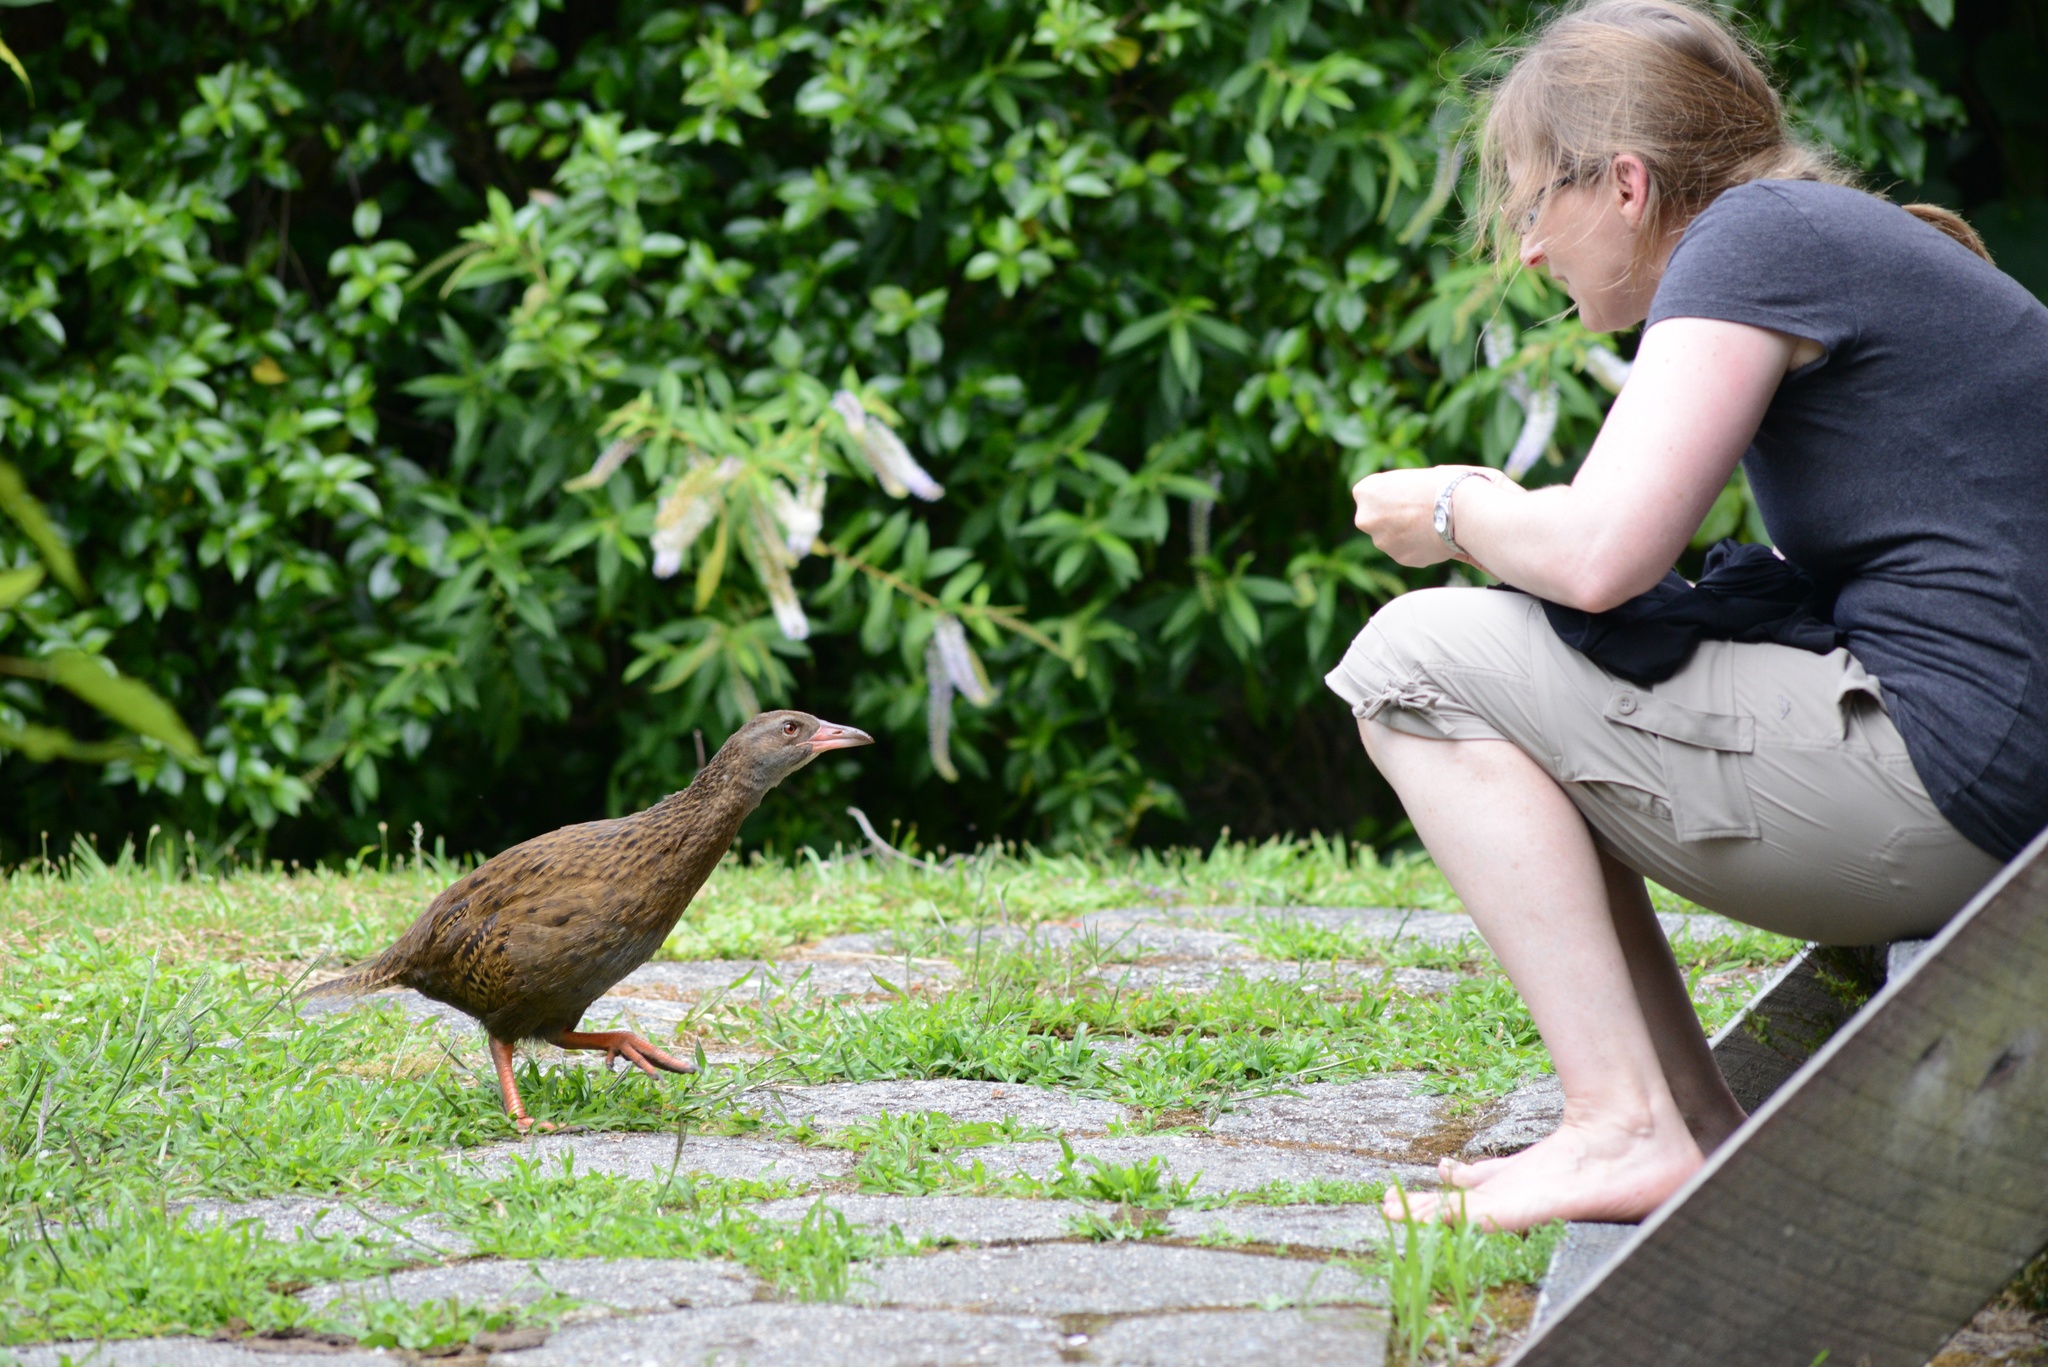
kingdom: Animalia
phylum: Chordata
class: Aves
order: Gruiformes
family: Rallidae
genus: Gallirallus
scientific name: Gallirallus australis
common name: Weka
